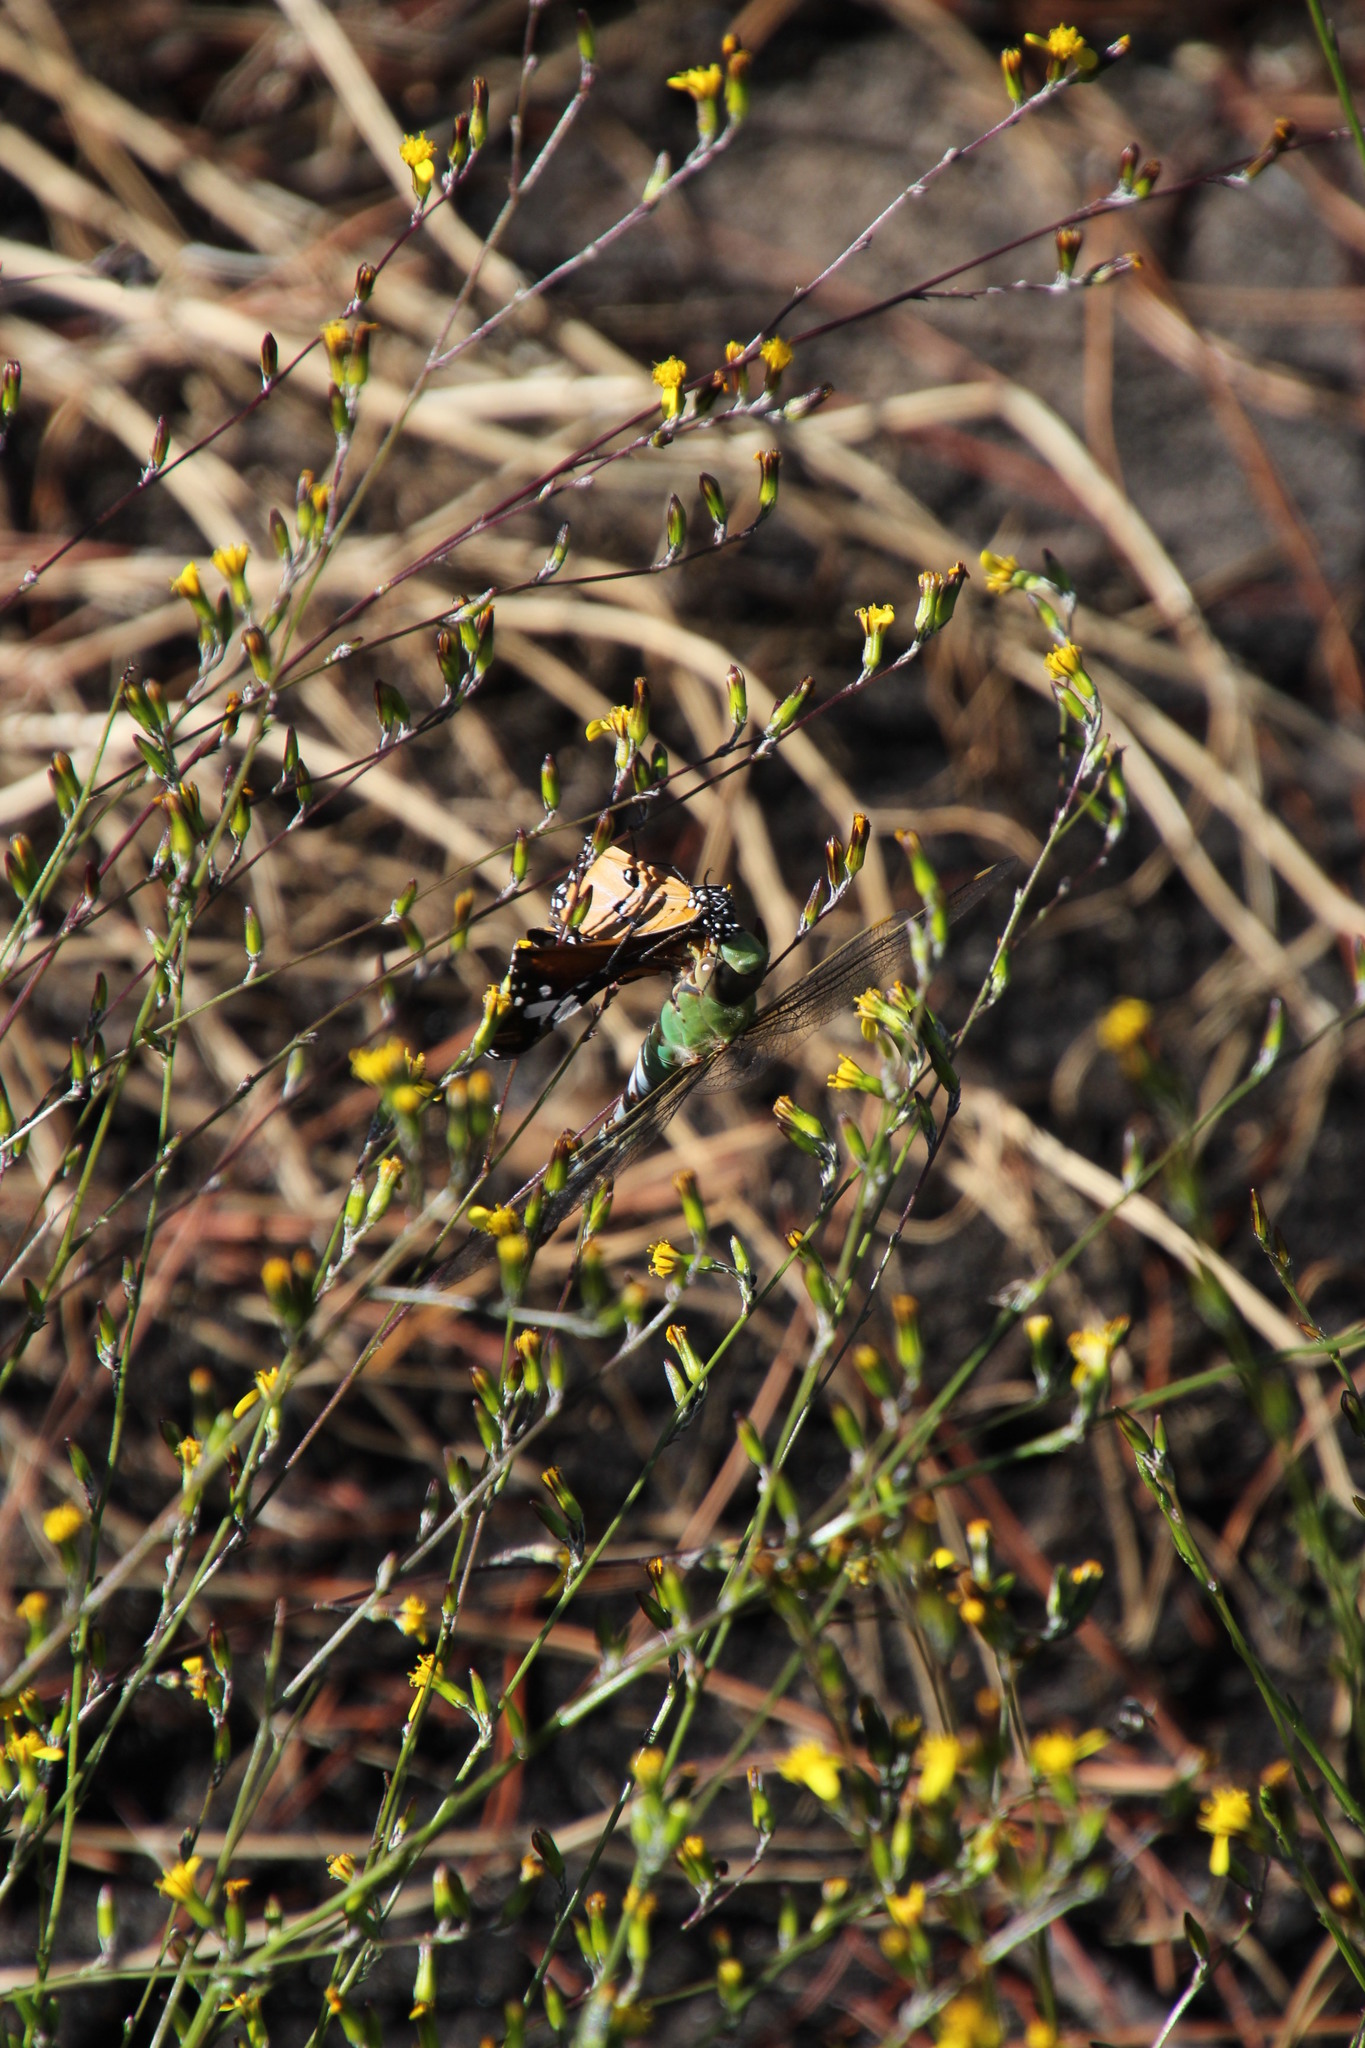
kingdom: Animalia
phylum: Arthropoda
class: Insecta
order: Lepidoptera
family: Nymphalidae
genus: Danaus
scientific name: Danaus chrysippus
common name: Plain tiger
